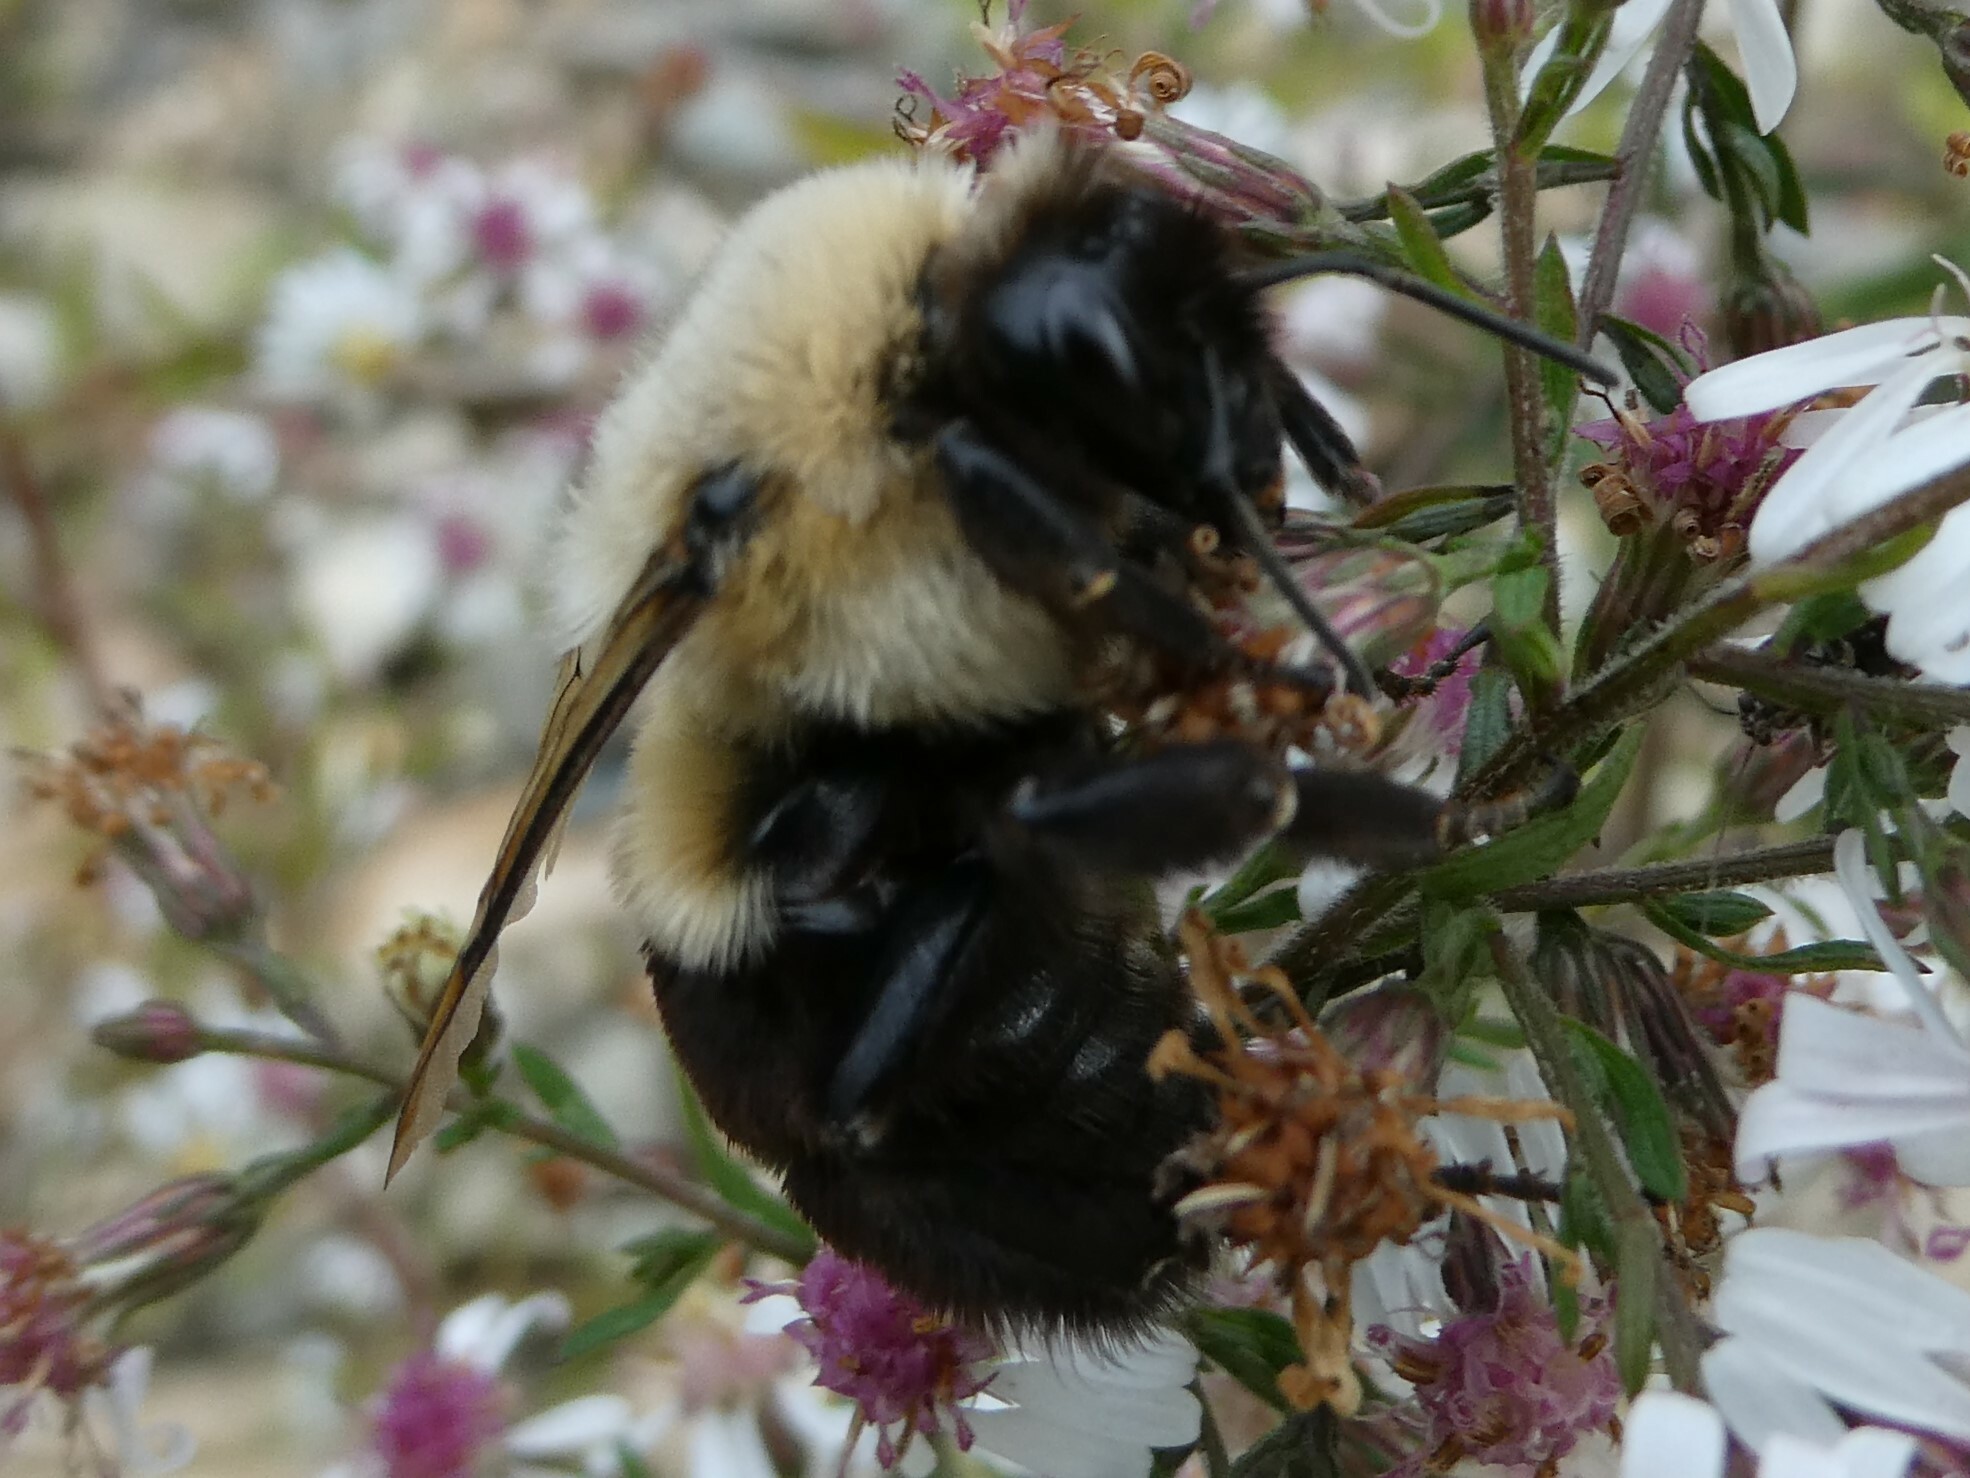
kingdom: Animalia
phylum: Arthropoda
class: Insecta
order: Hymenoptera
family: Apidae
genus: Bombus
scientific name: Bombus impatiens
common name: Common eastern bumble bee
